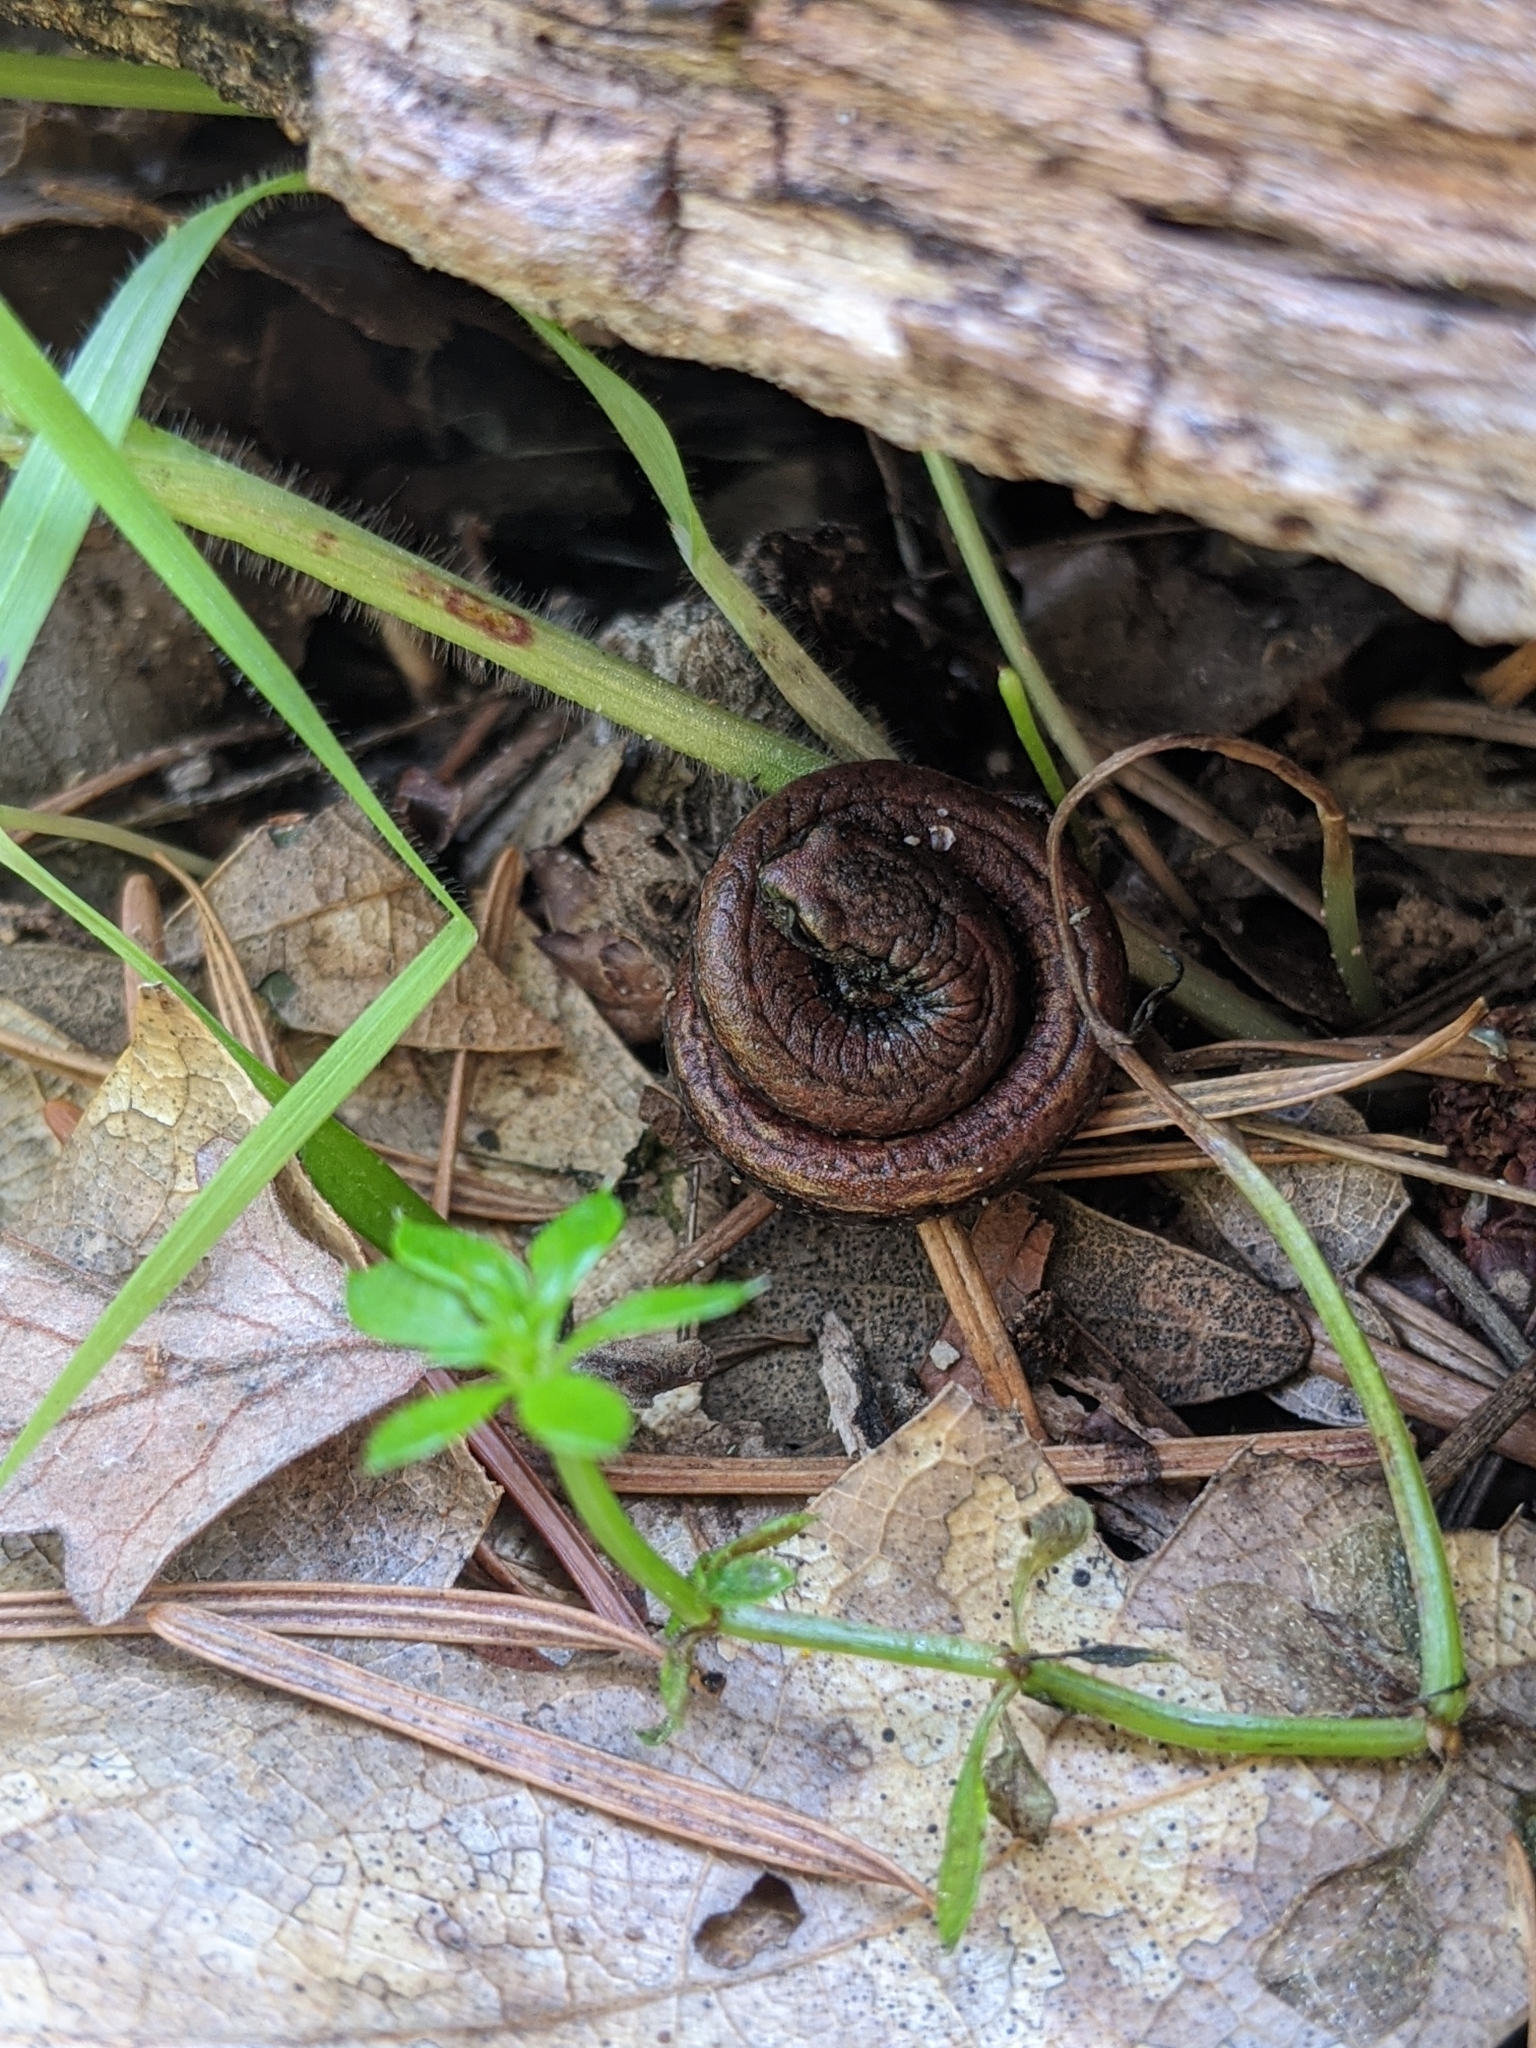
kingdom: Animalia
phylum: Chordata
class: Amphibia
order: Caudata
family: Plethodontidae
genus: Batrachoseps
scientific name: Batrachoseps attenuatus
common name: California slender salamander
